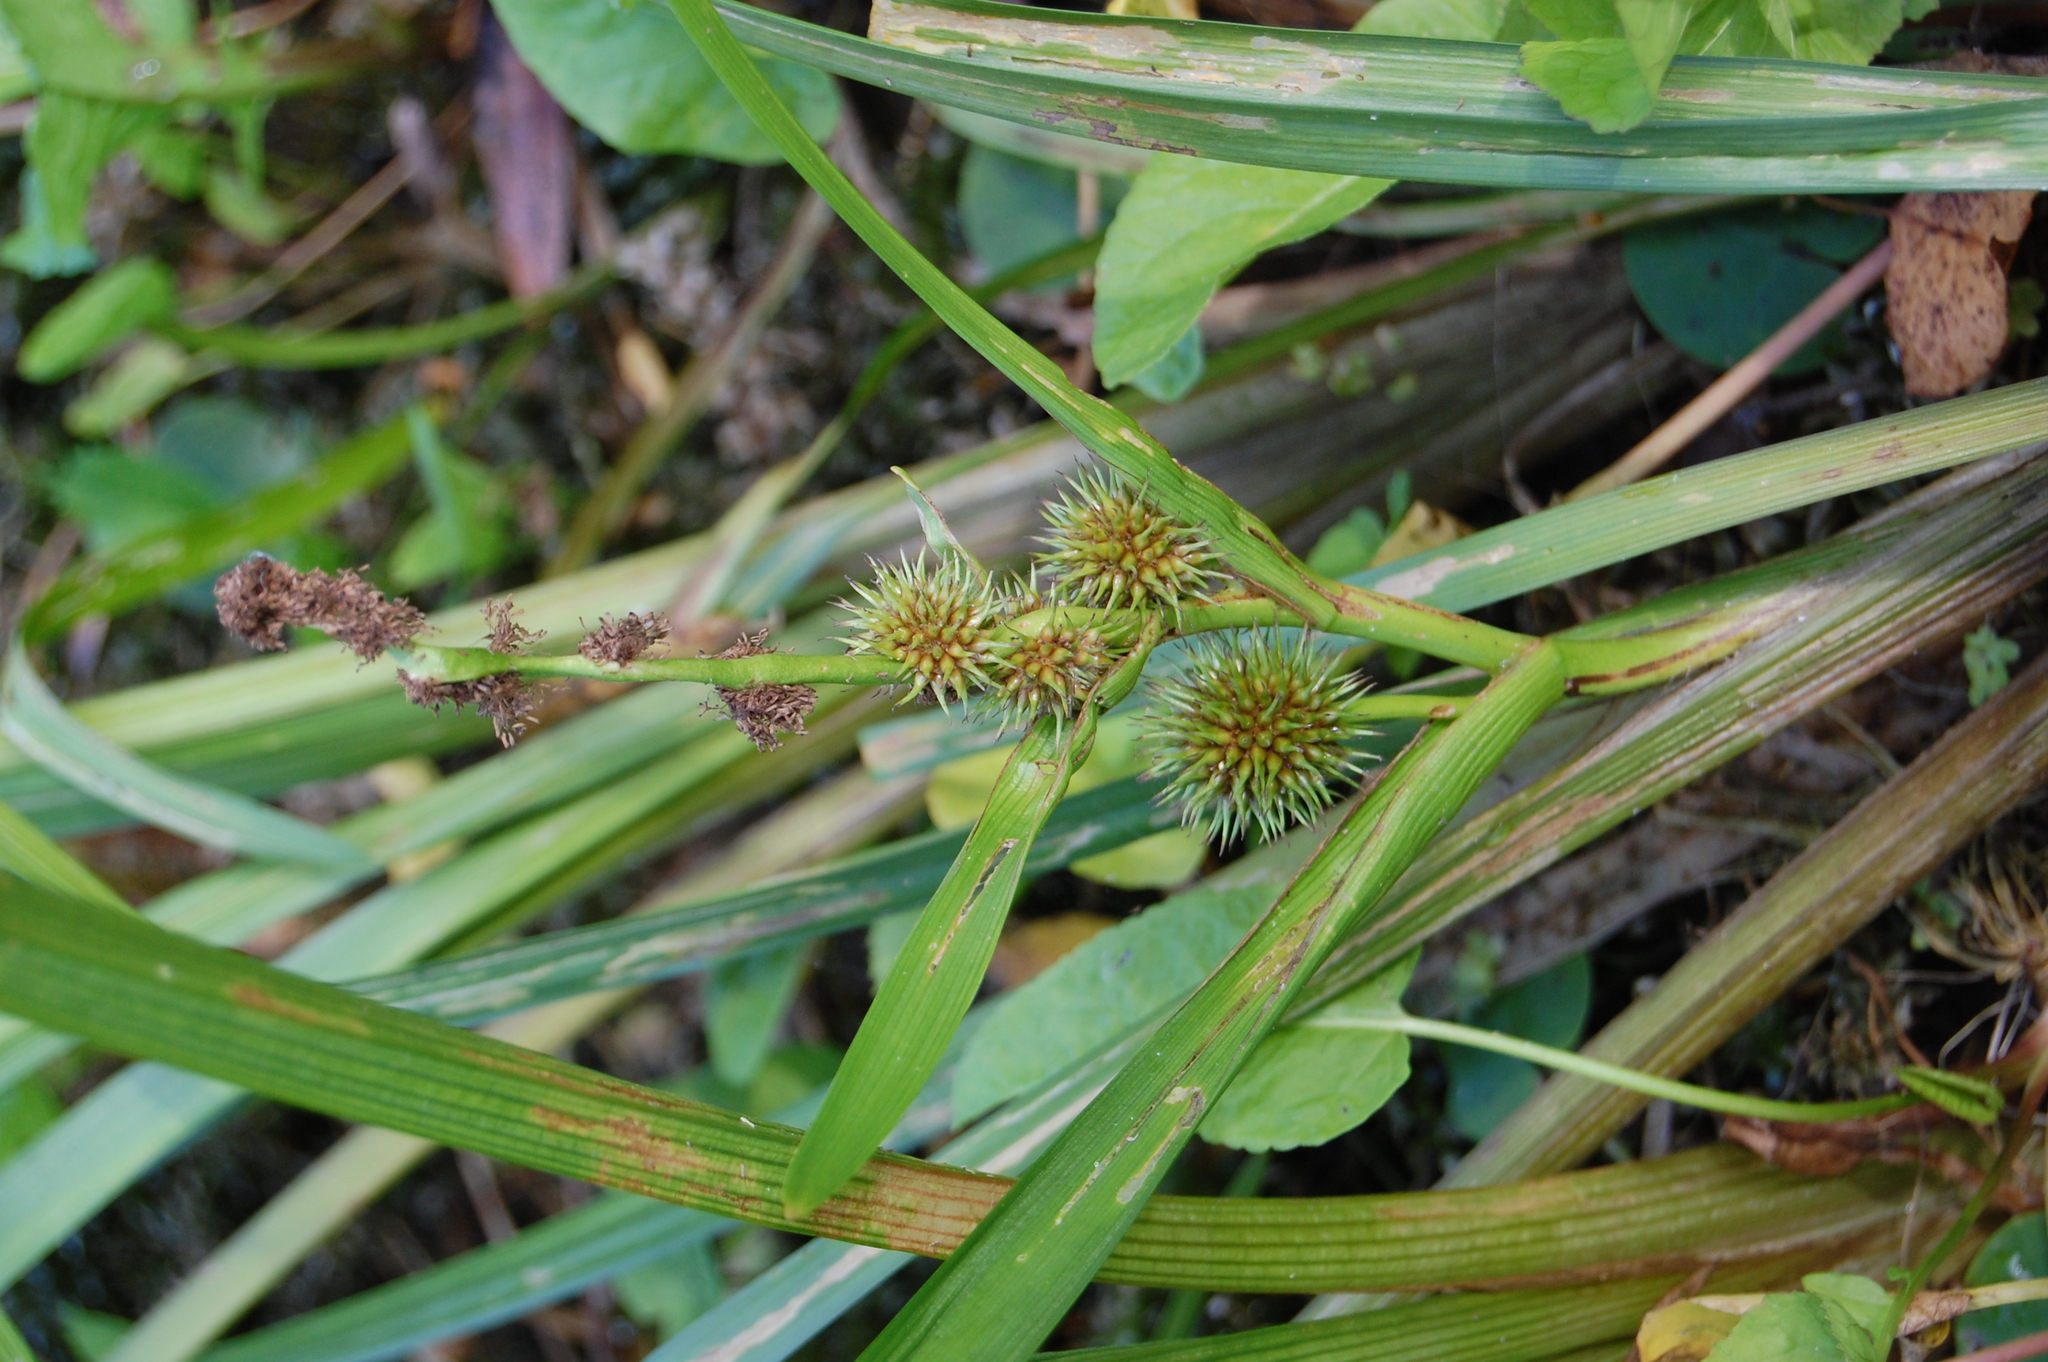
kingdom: Plantae
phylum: Tracheophyta
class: Liliopsida
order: Poales
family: Typhaceae
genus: Sparganium
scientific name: Sparganium emersum
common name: Unbranched bur-reed
